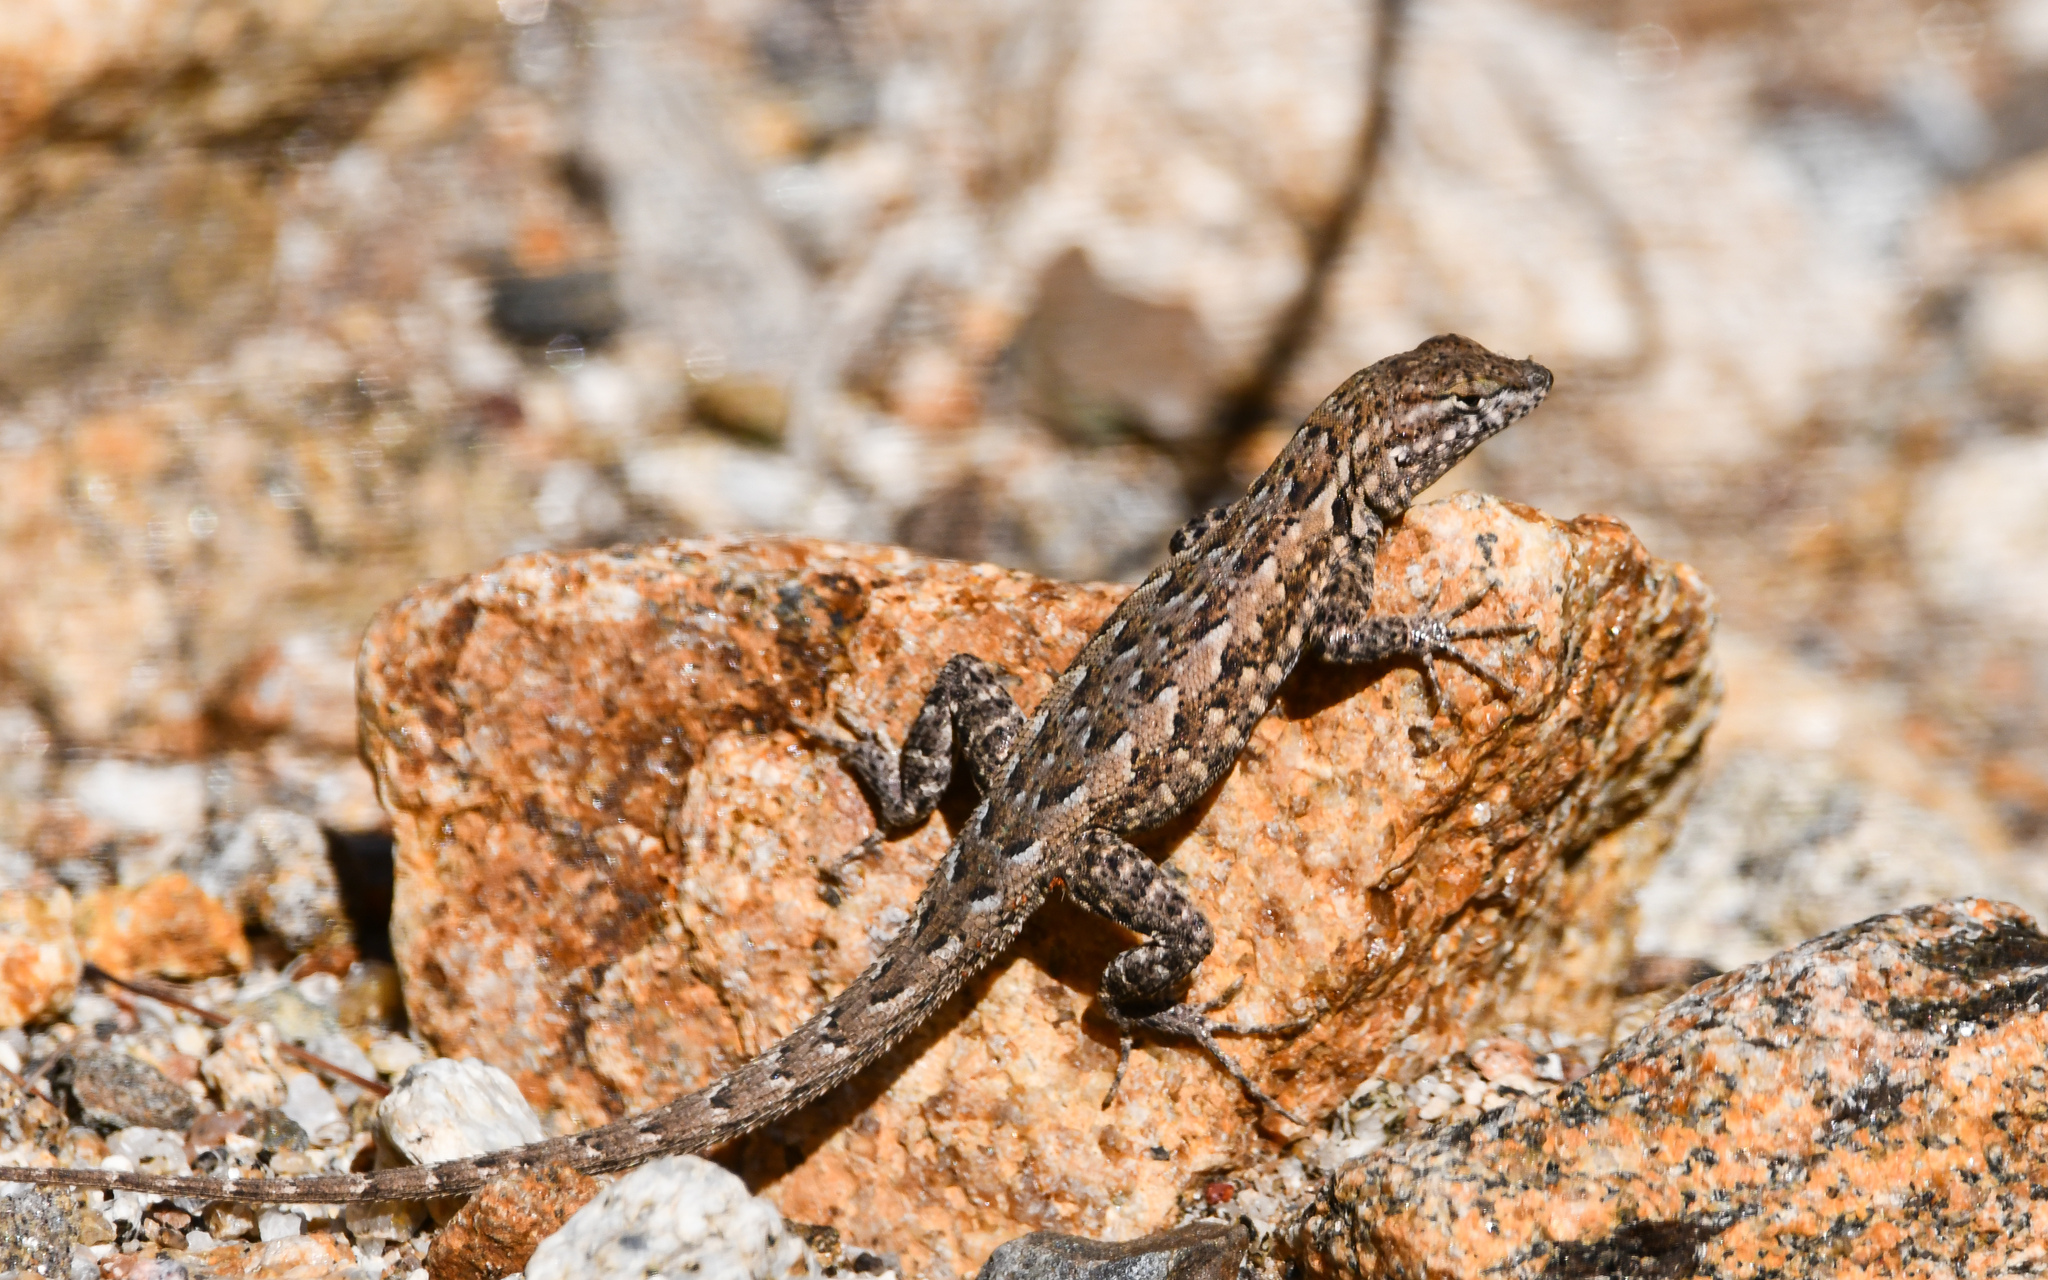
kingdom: Animalia
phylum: Chordata
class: Squamata
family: Phrynosomatidae
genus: Uta
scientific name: Uta stansburiana
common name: Side-blotched lizard
